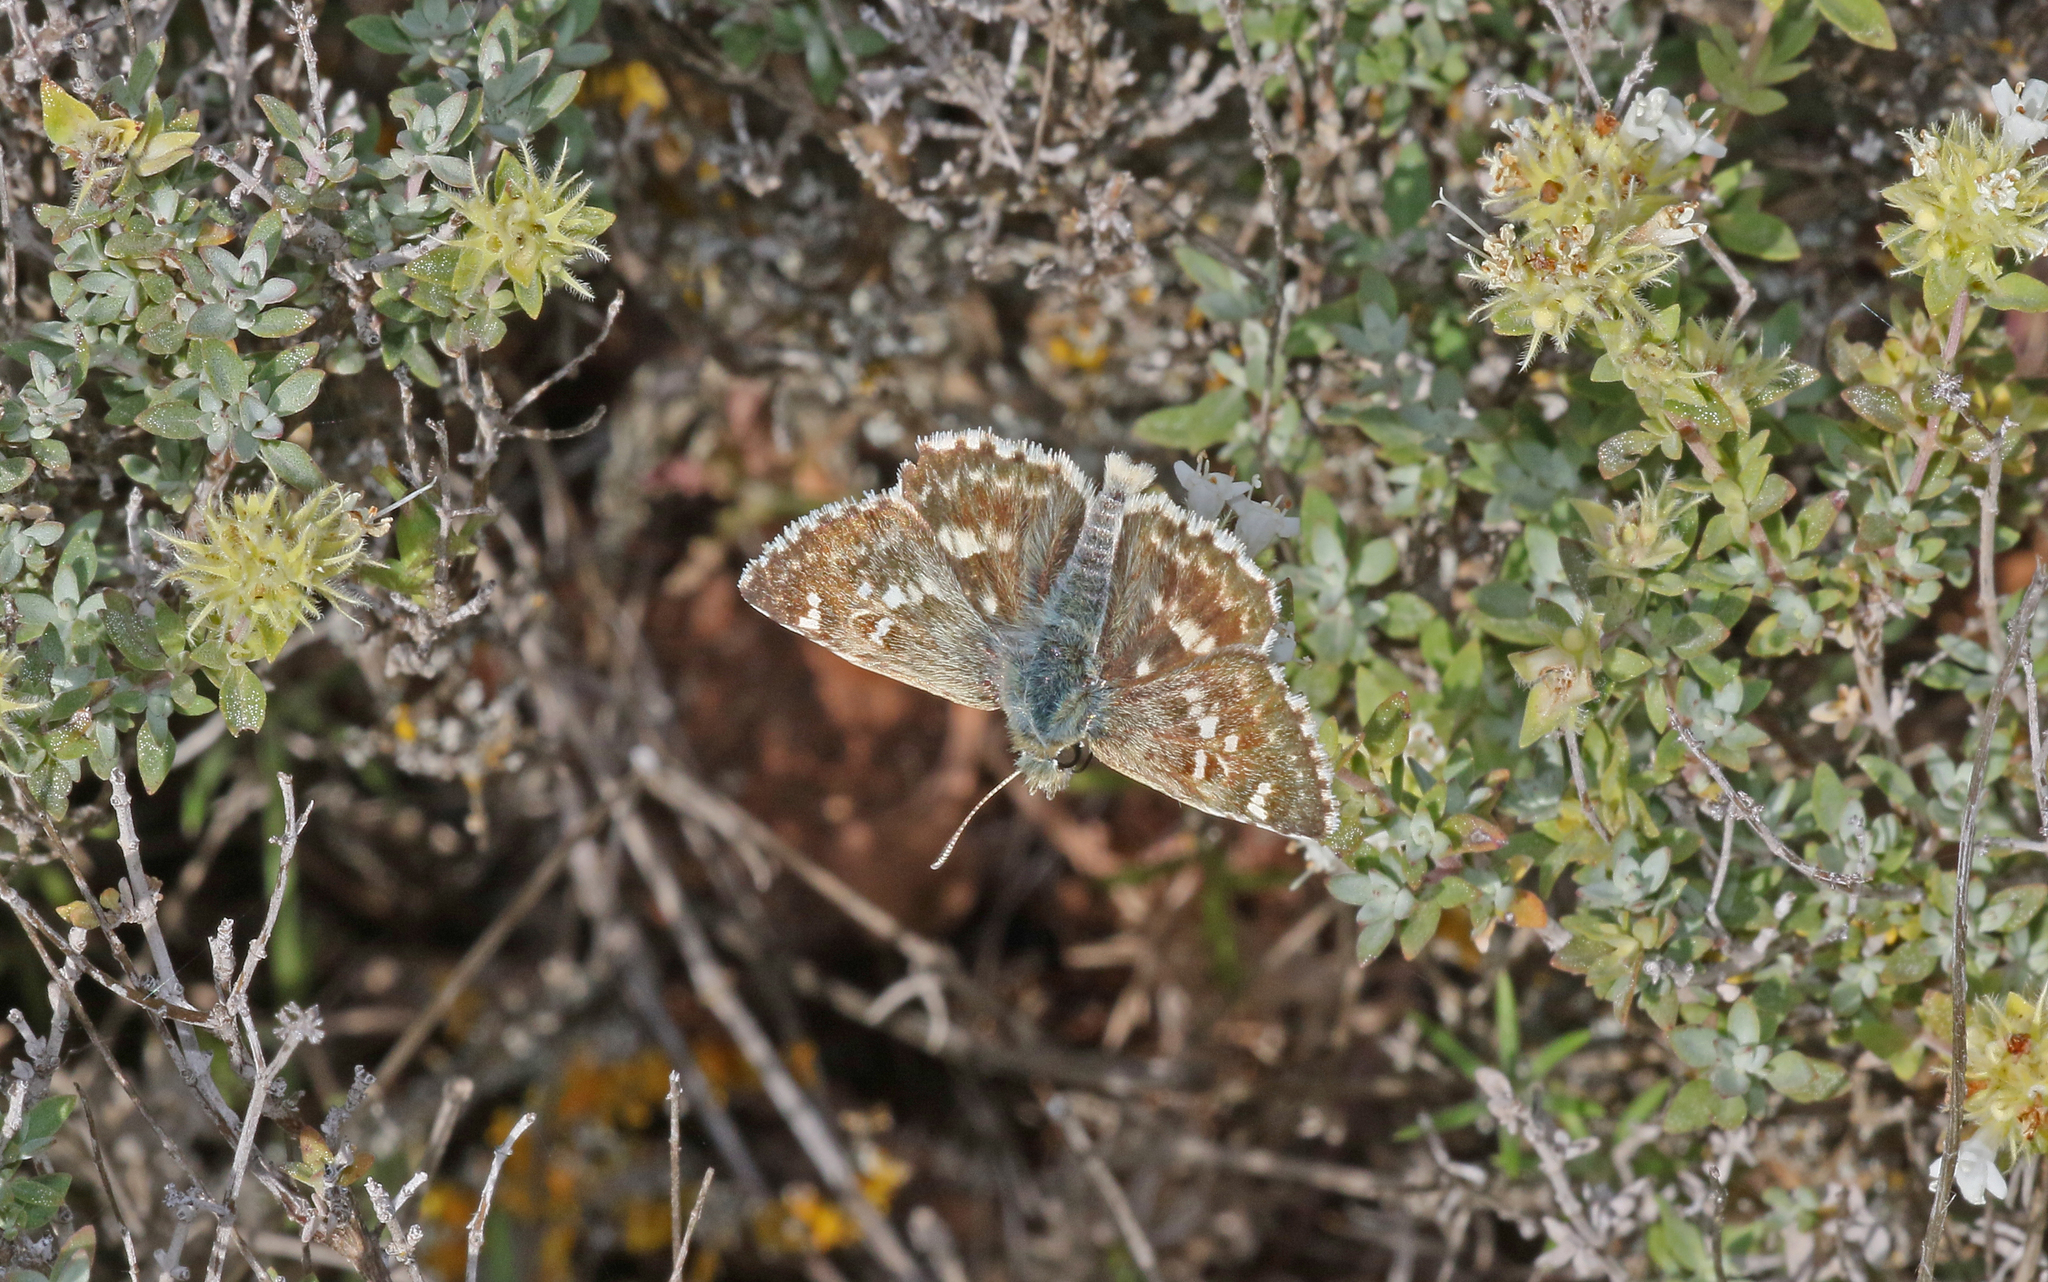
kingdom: Animalia
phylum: Arthropoda
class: Insecta
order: Lepidoptera
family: Hesperiidae
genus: Syrichtus
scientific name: Syrichtus Muschampia proto
